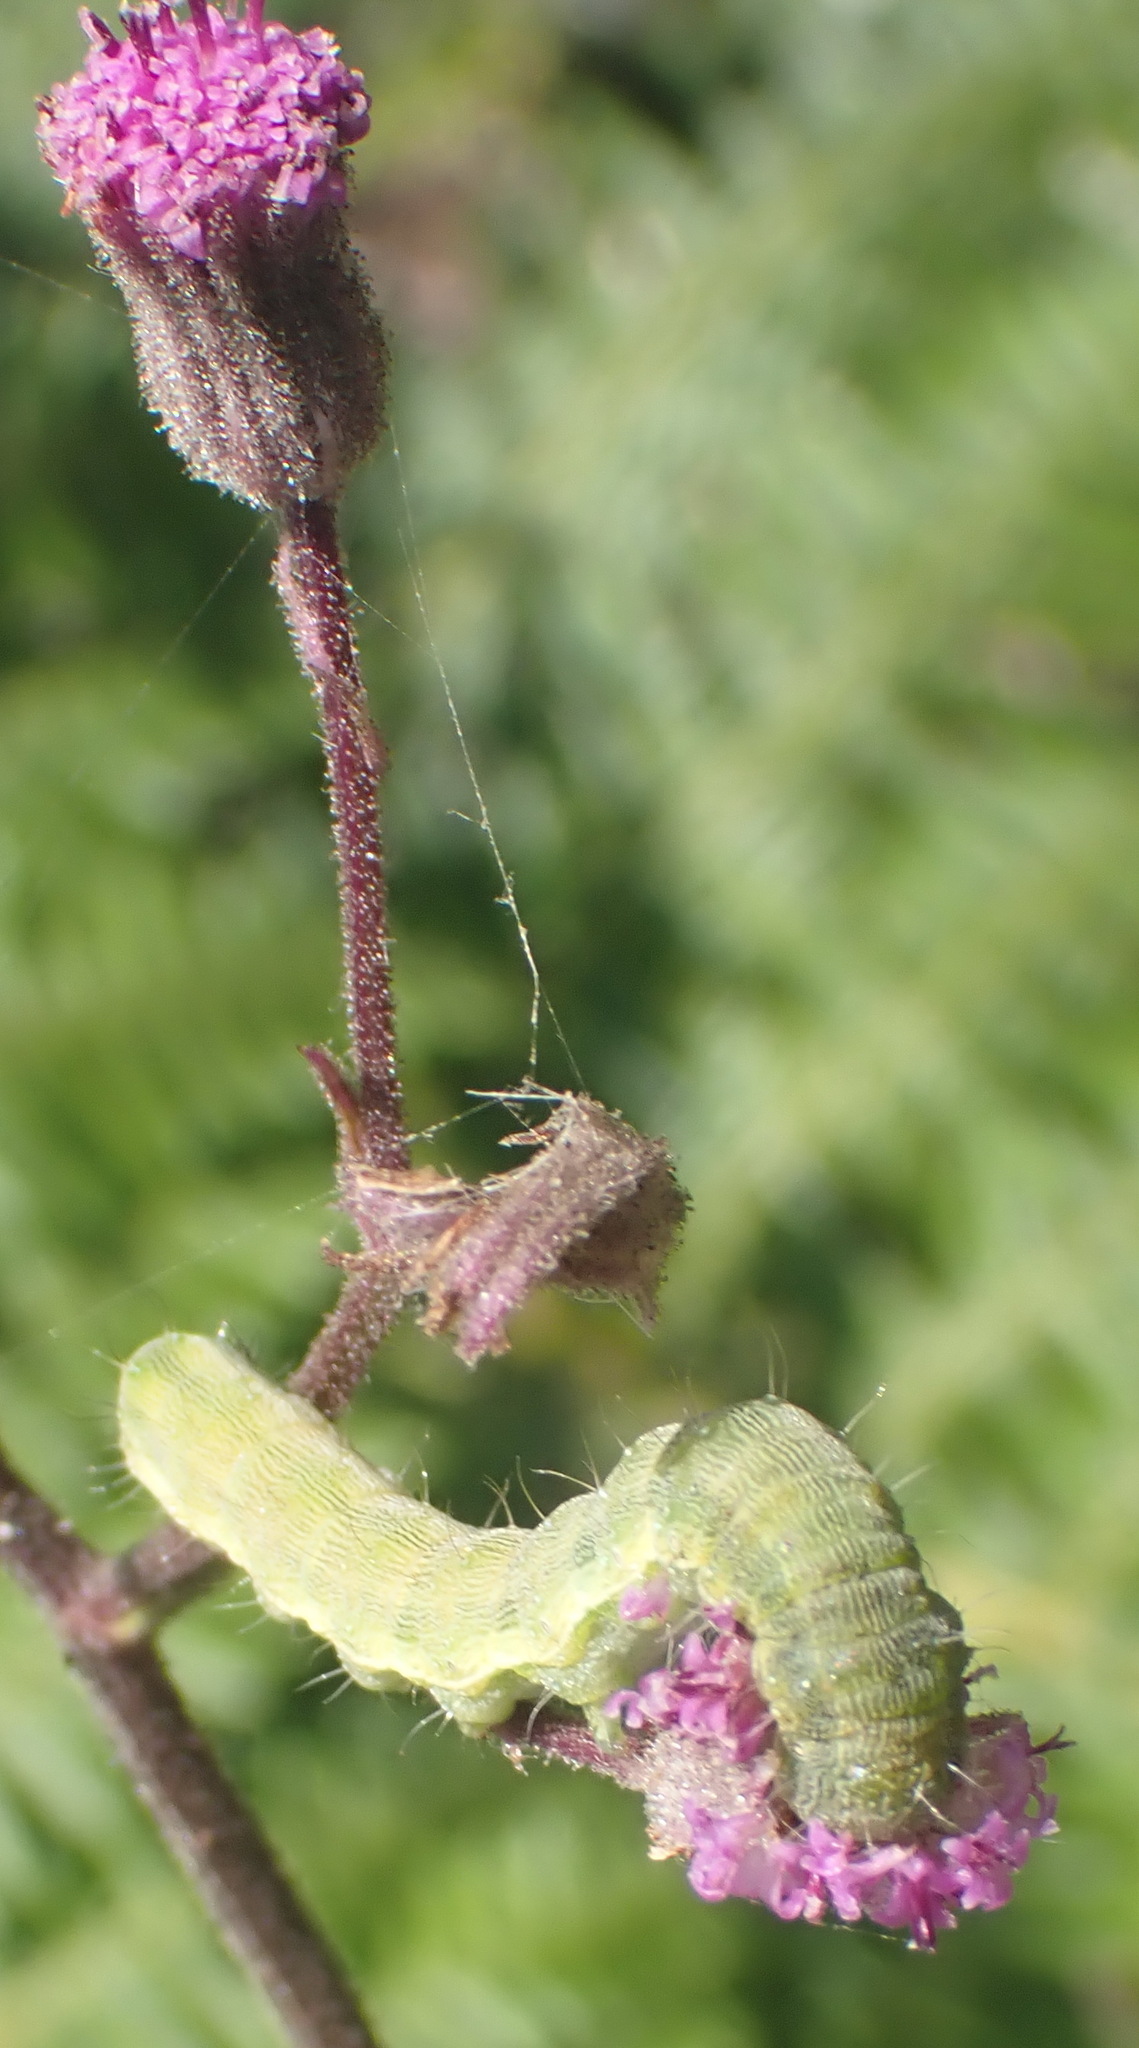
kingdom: Plantae
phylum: Tracheophyta
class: Magnoliopsida
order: Asterales
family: Asteraceae
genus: Senecio
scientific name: Senecio purpureus
